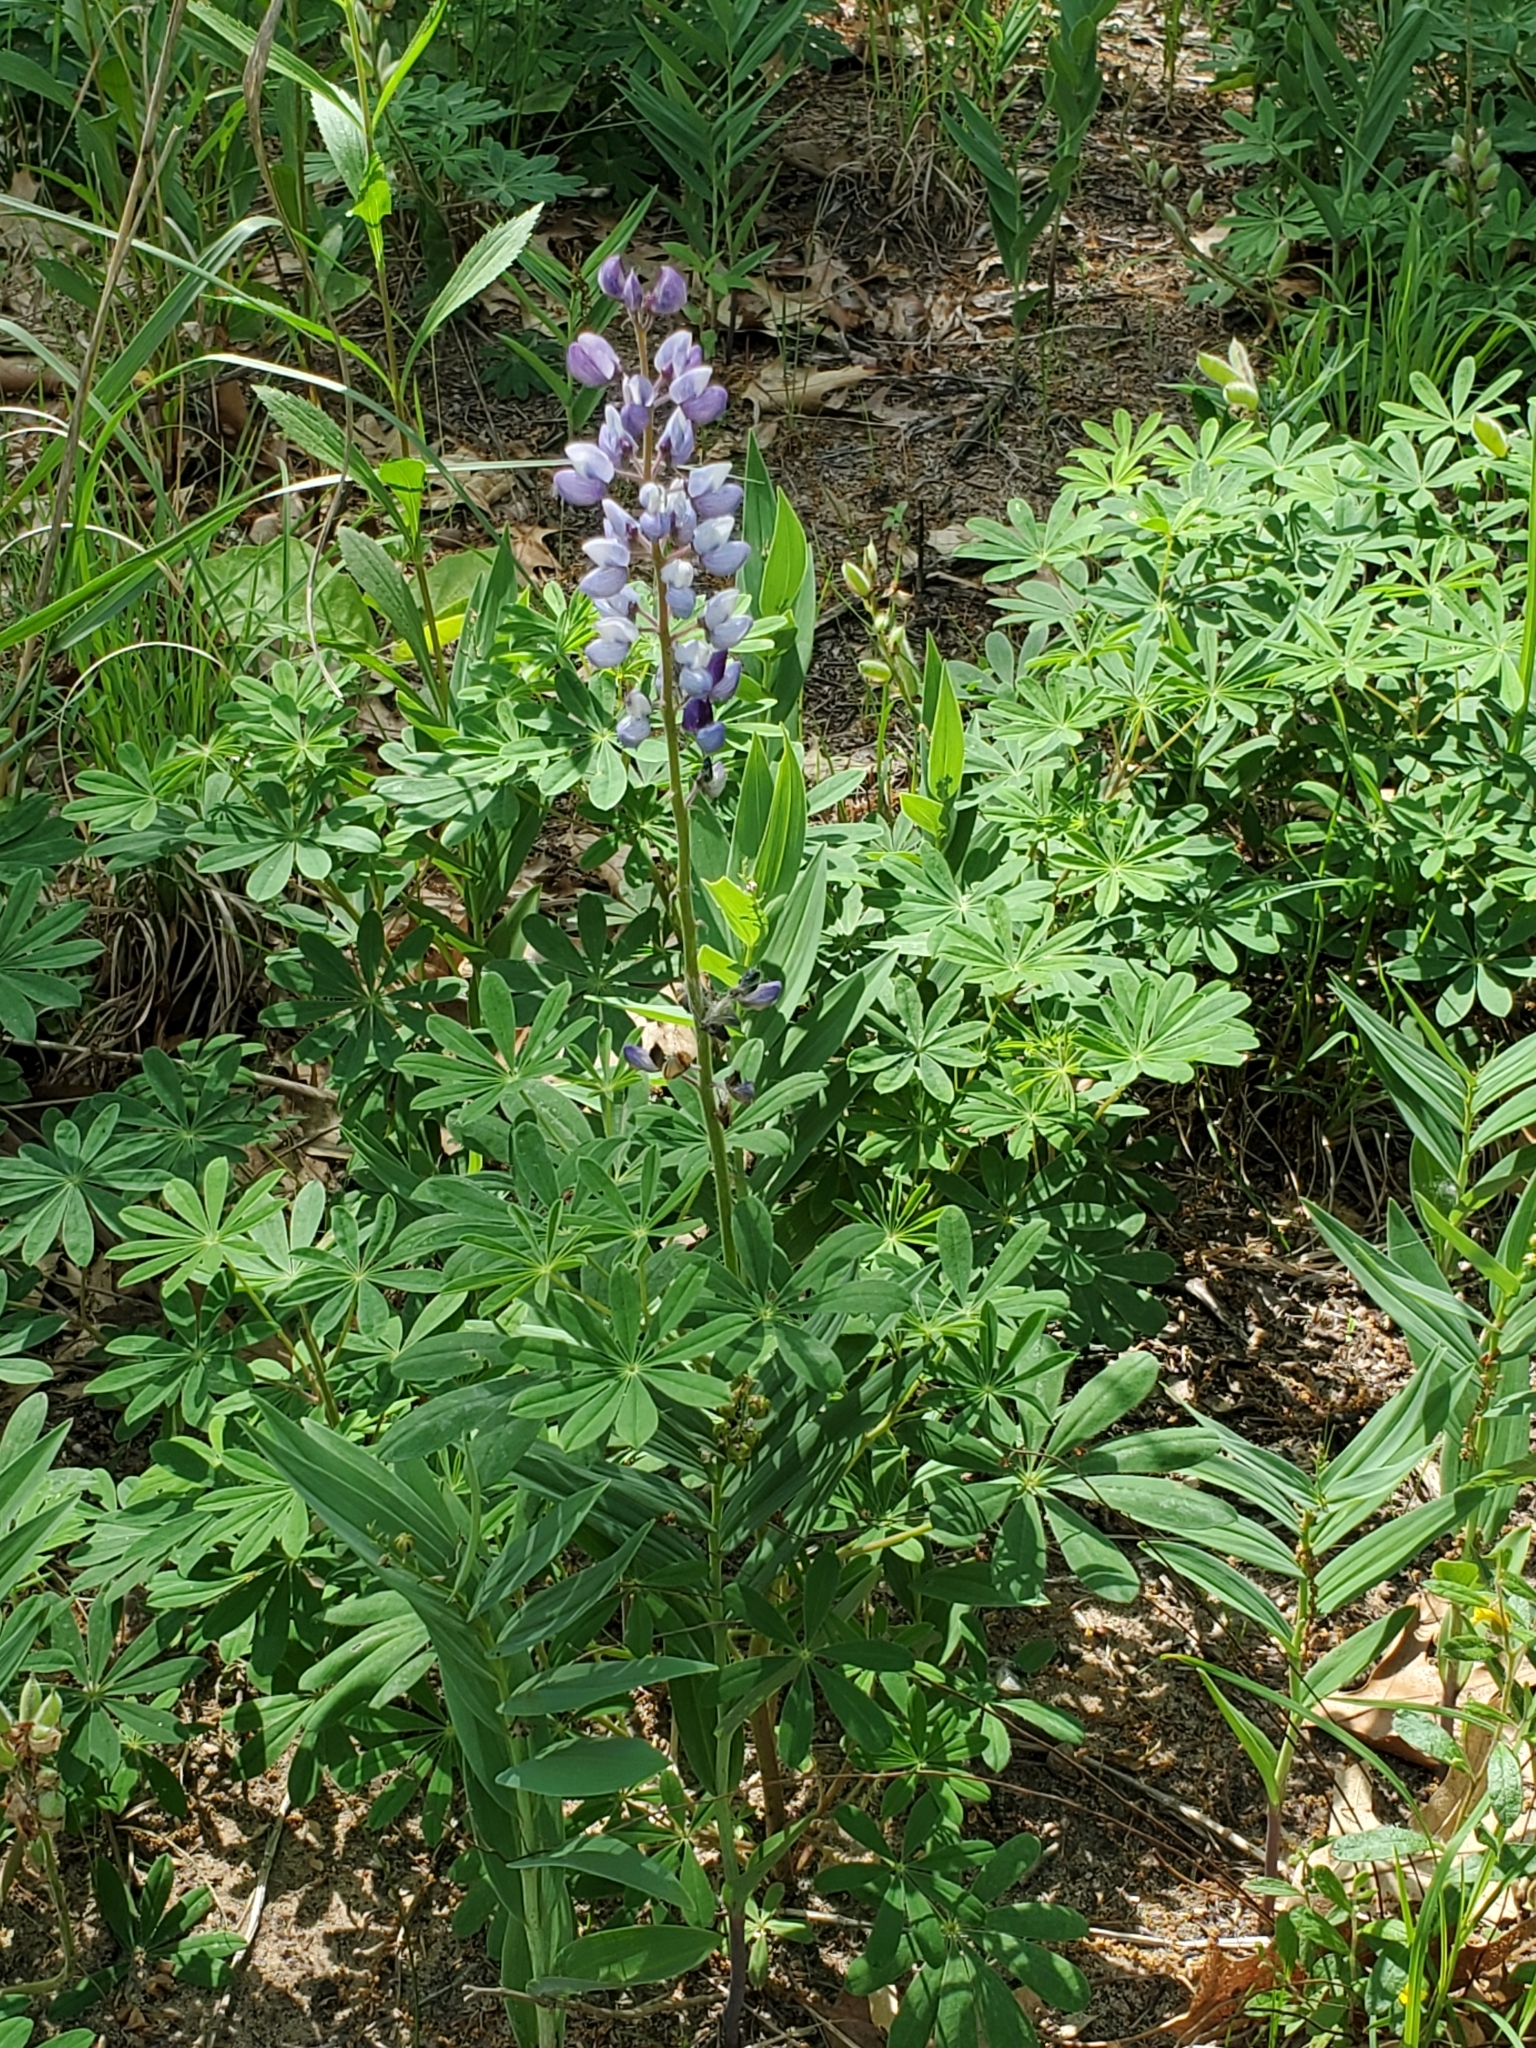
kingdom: Plantae
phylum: Tracheophyta
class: Magnoliopsida
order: Fabales
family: Fabaceae
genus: Lupinus
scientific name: Lupinus perennis
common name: Sundial lupine
